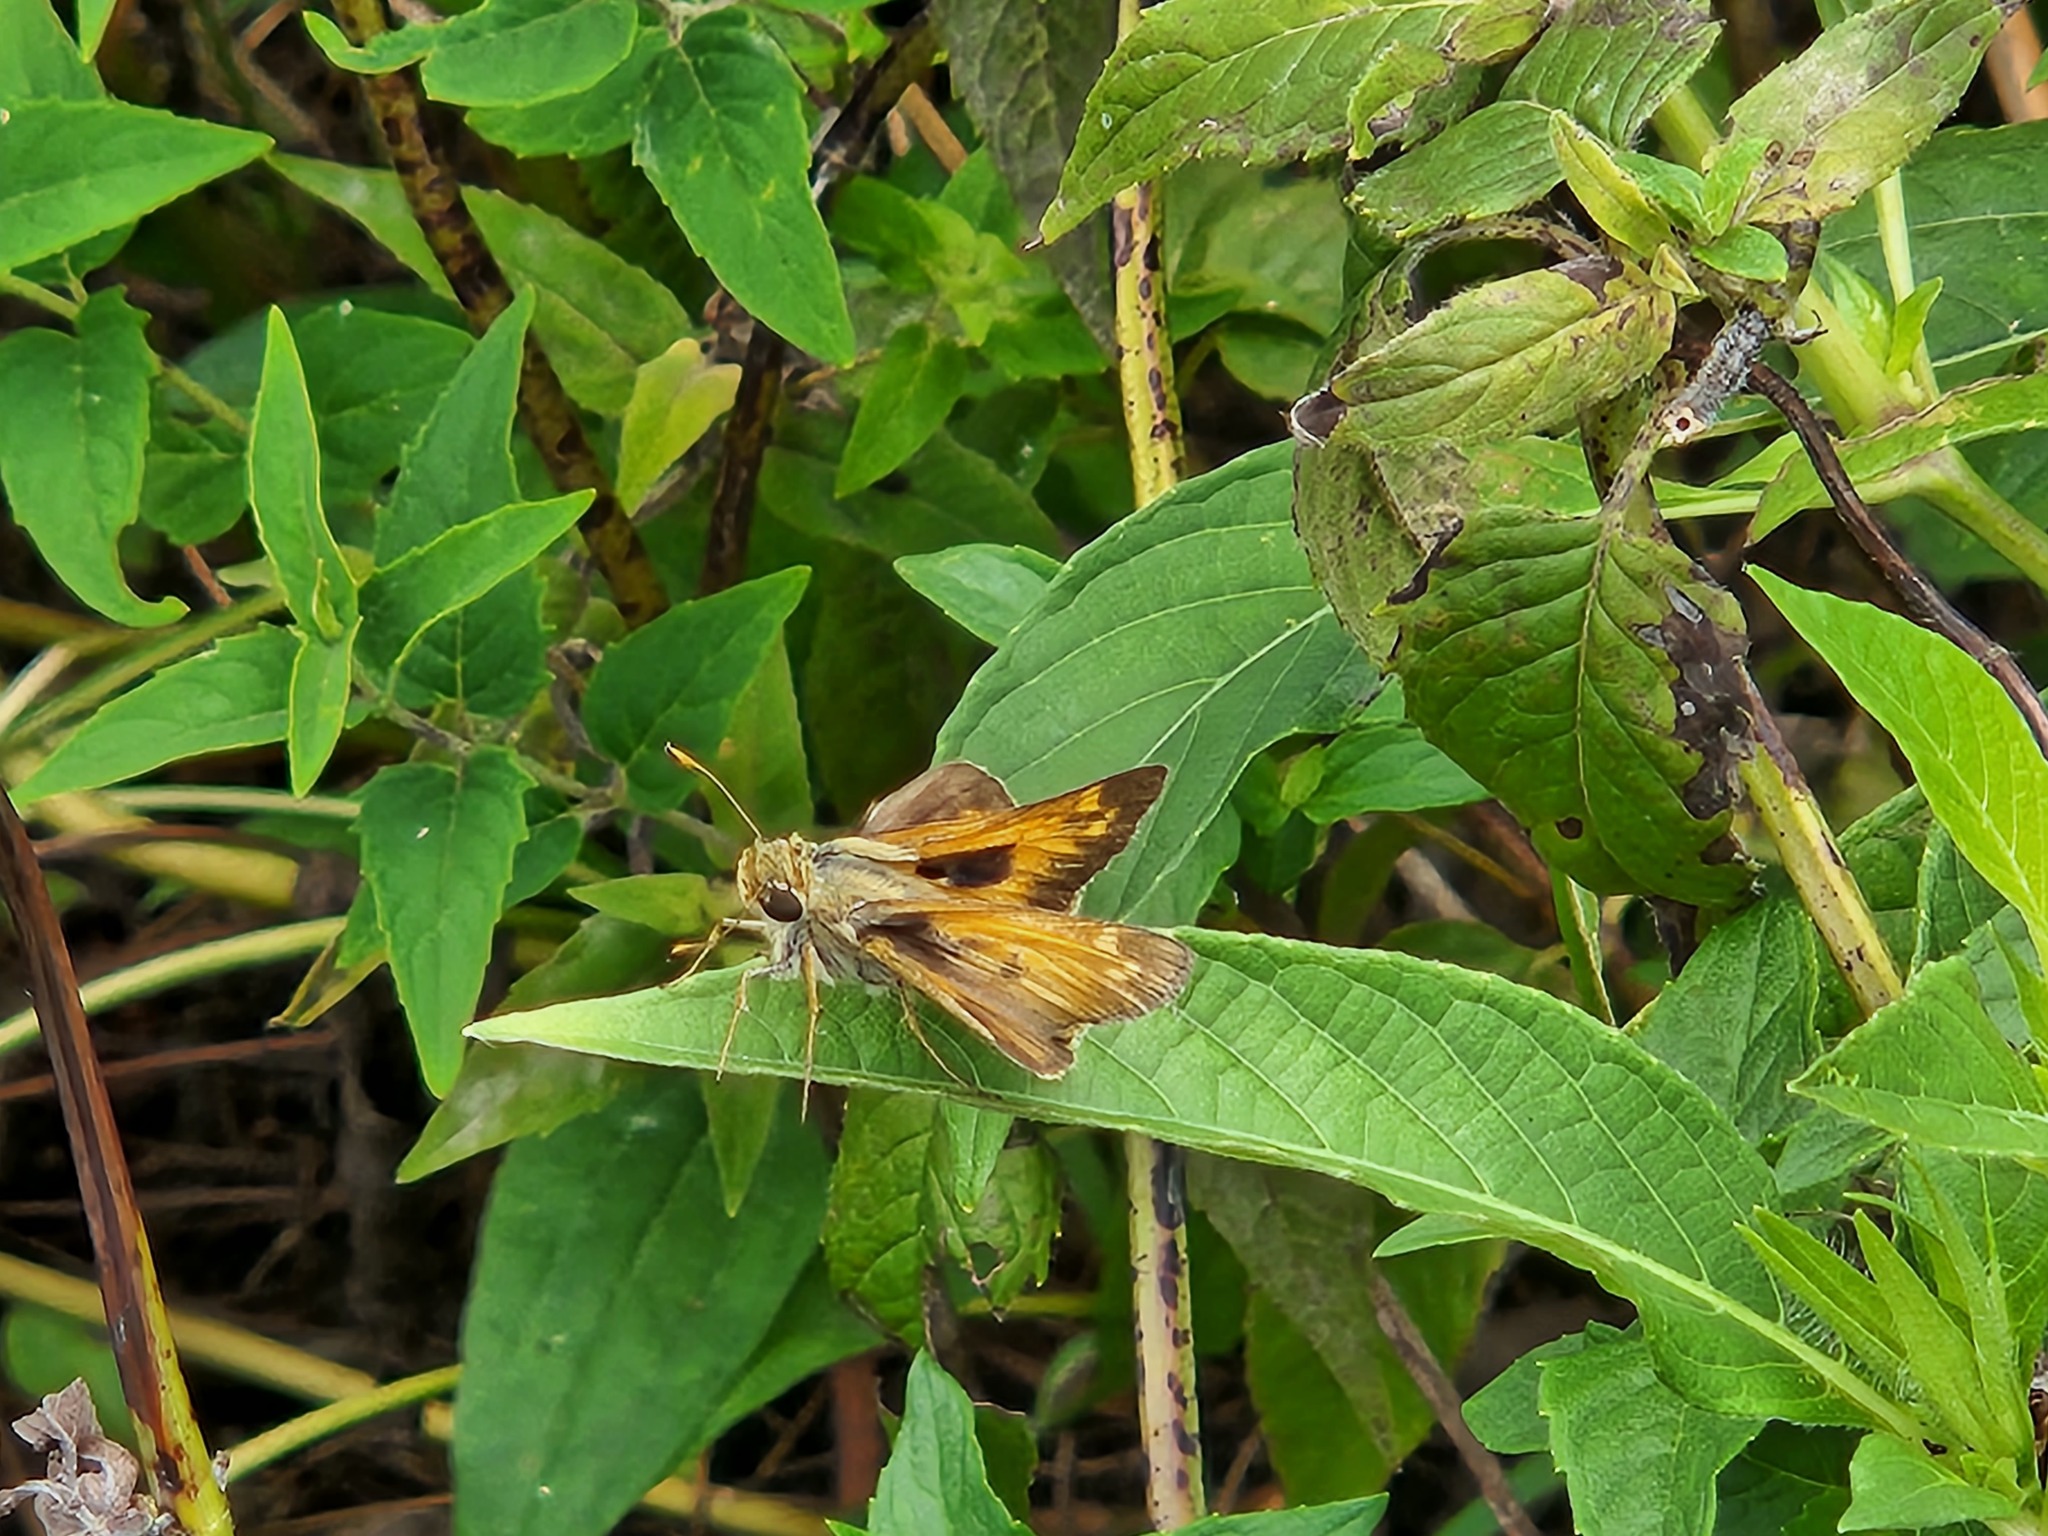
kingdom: Animalia
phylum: Arthropoda
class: Insecta
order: Lepidoptera
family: Hesperiidae
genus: Atalopedes
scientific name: Atalopedes
